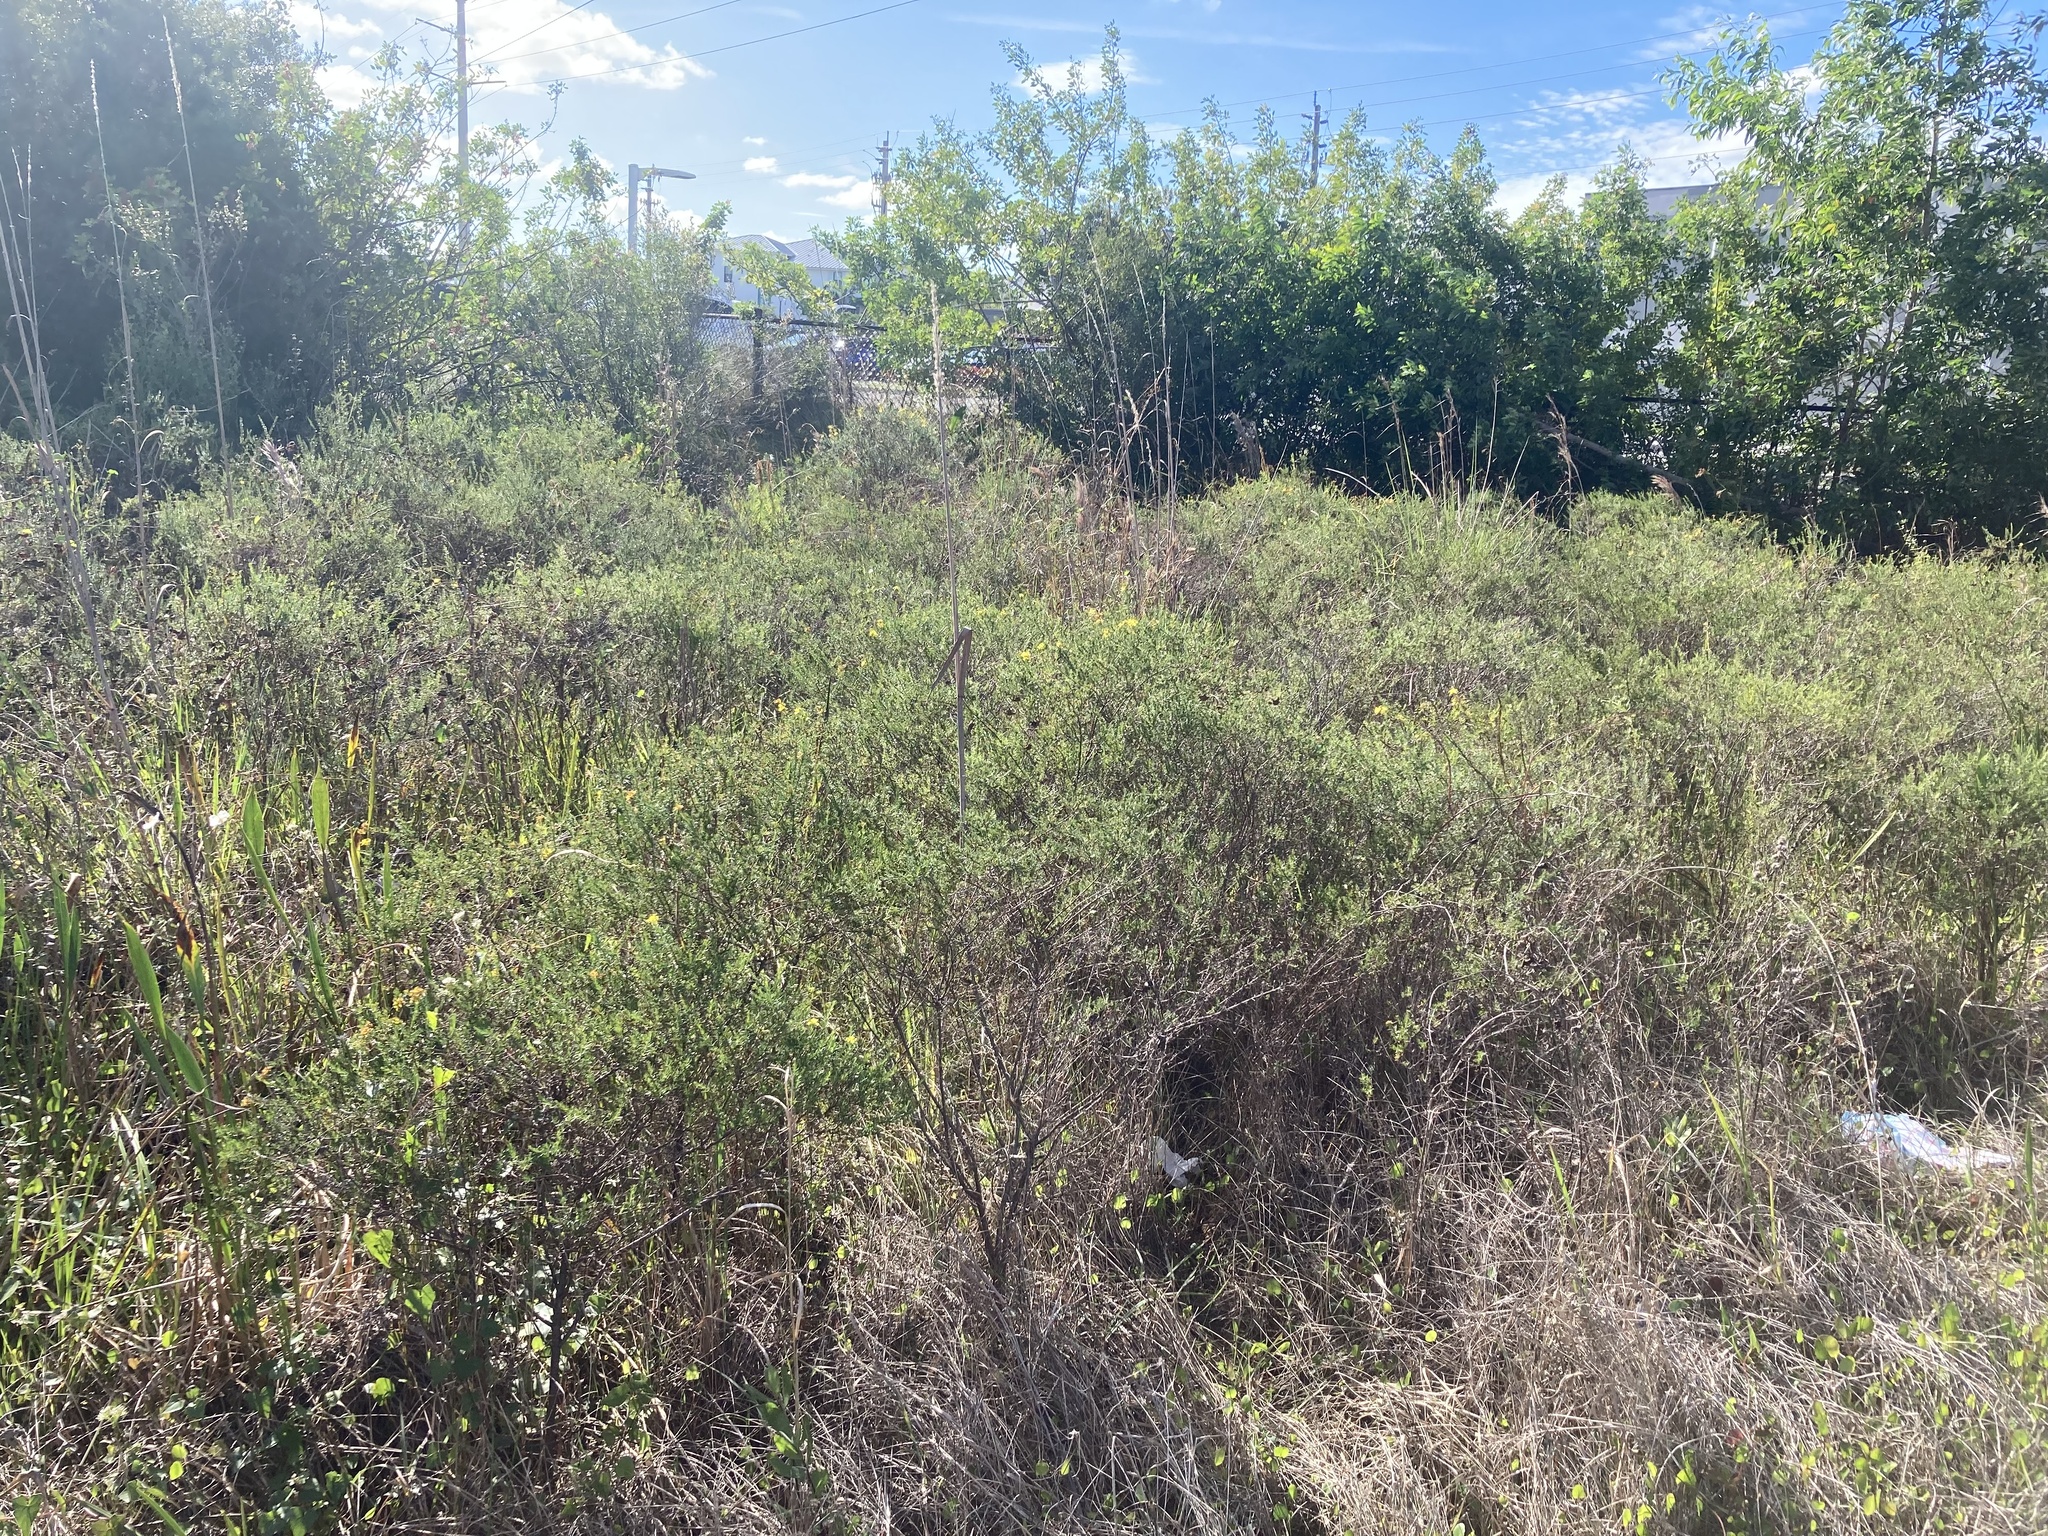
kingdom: Plantae
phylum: Tracheophyta
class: Magnoliopsida
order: Malpighiales
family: Hypericaceae
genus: Hypericum
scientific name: Hypericum fasciculatum
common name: Peelbark st. john's wort
